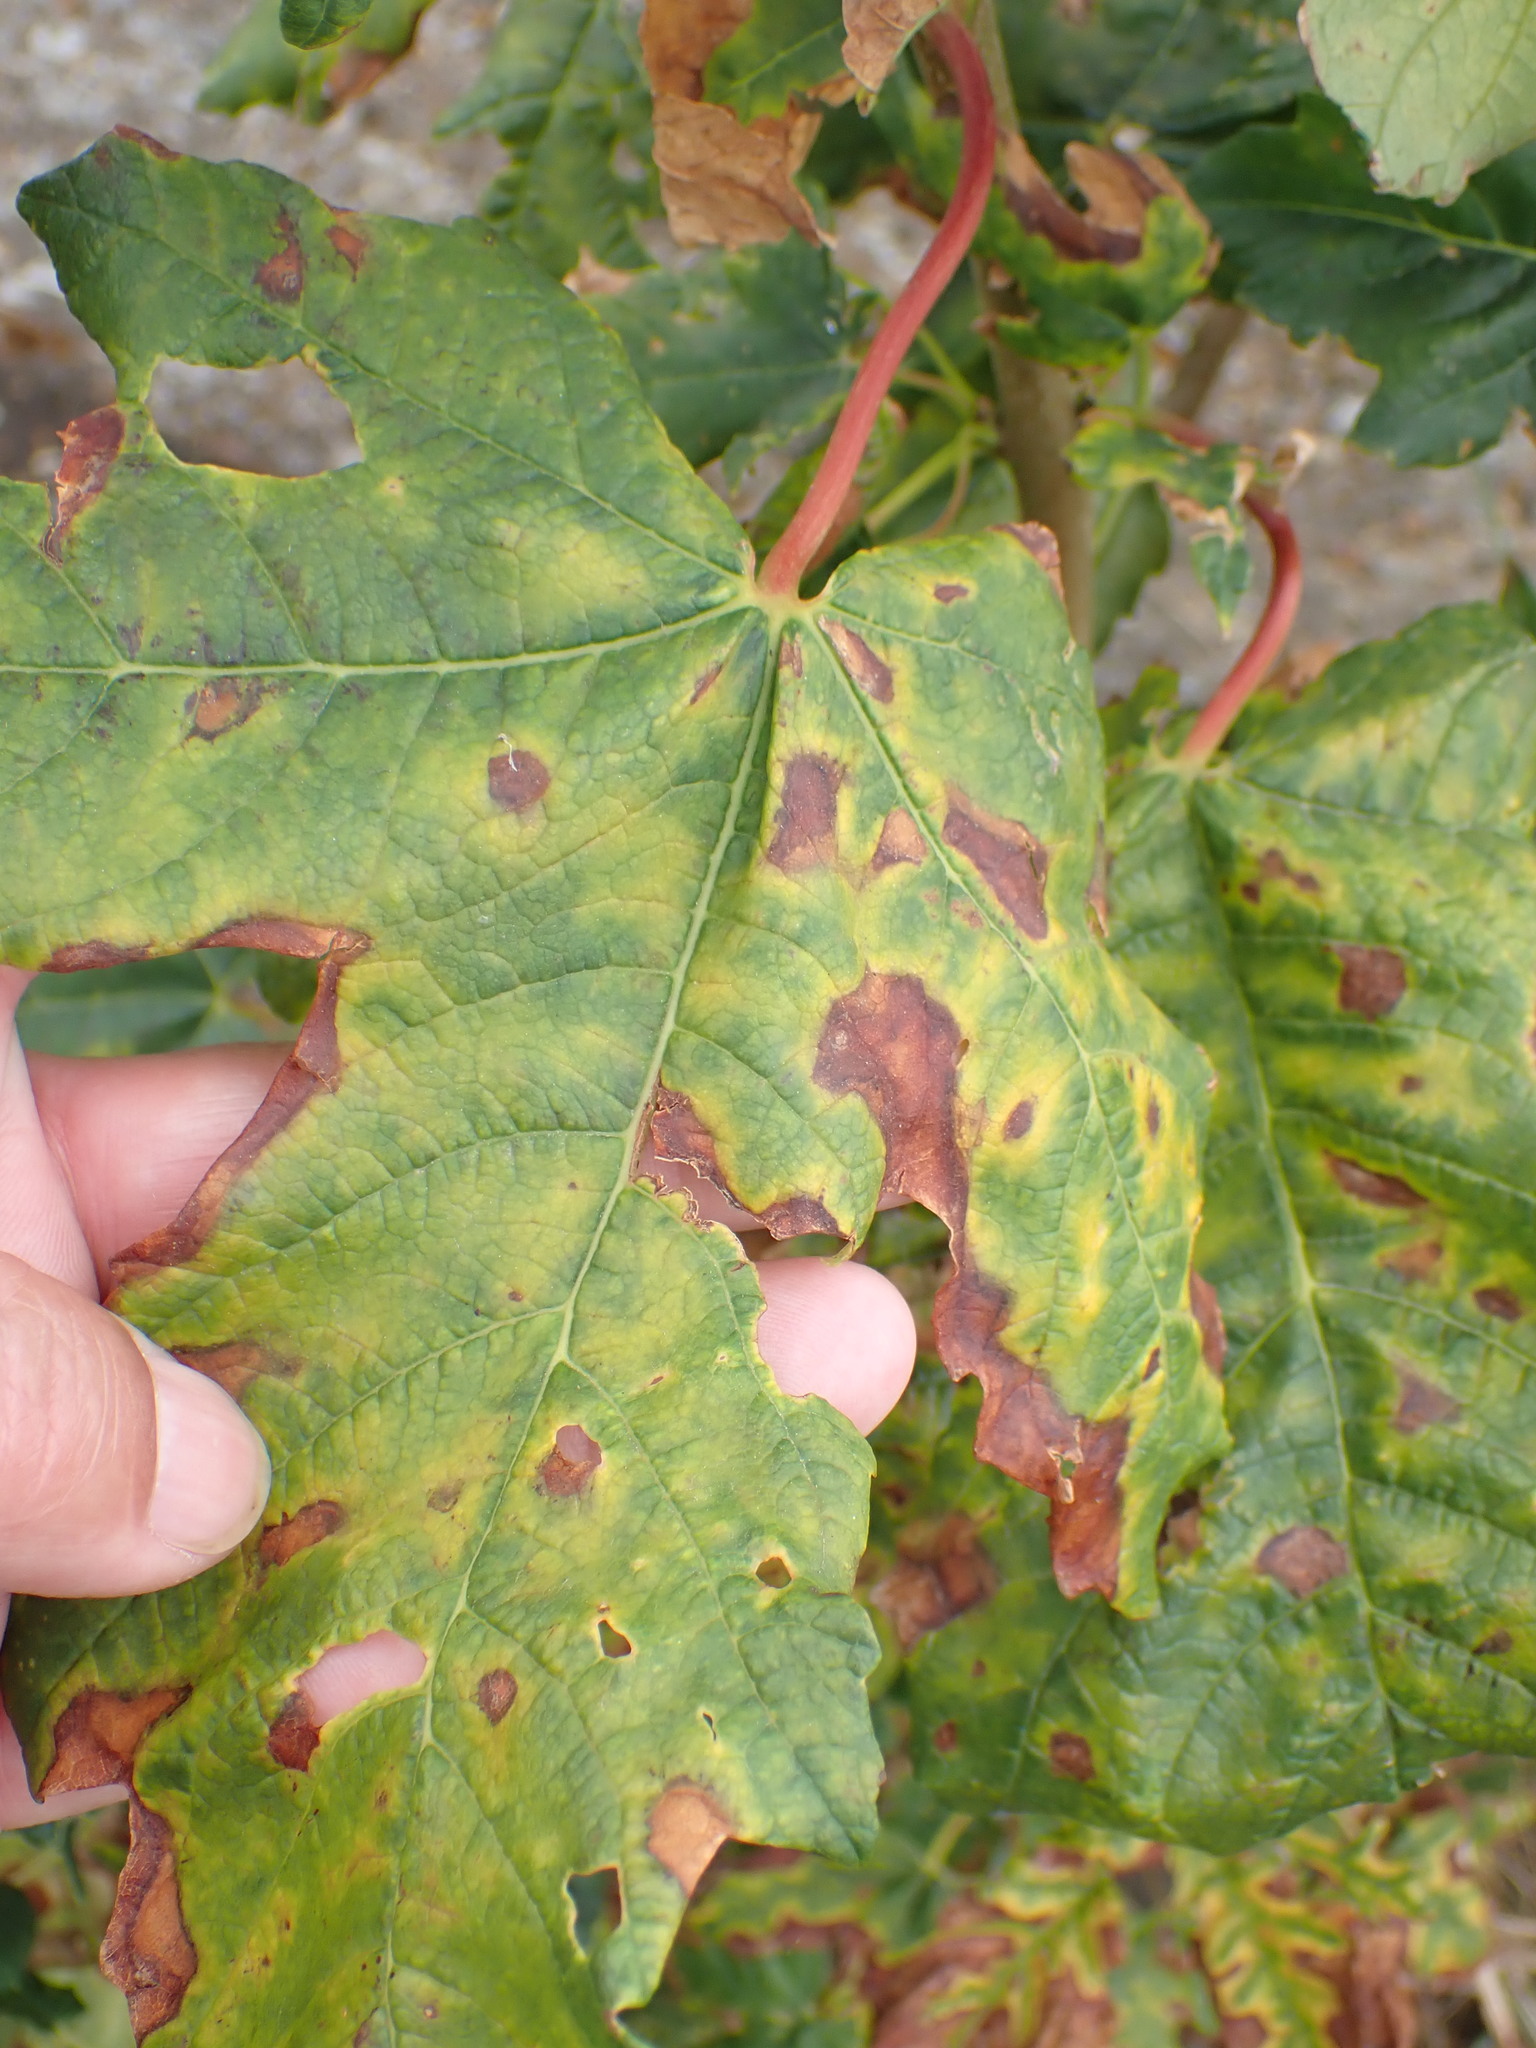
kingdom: Plantae
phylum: Tracheophyta
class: Magnoliopsida
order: Sapindales
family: Sapindaceae
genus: Acer
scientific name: Acer pseudoplatanus
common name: Sycamore
